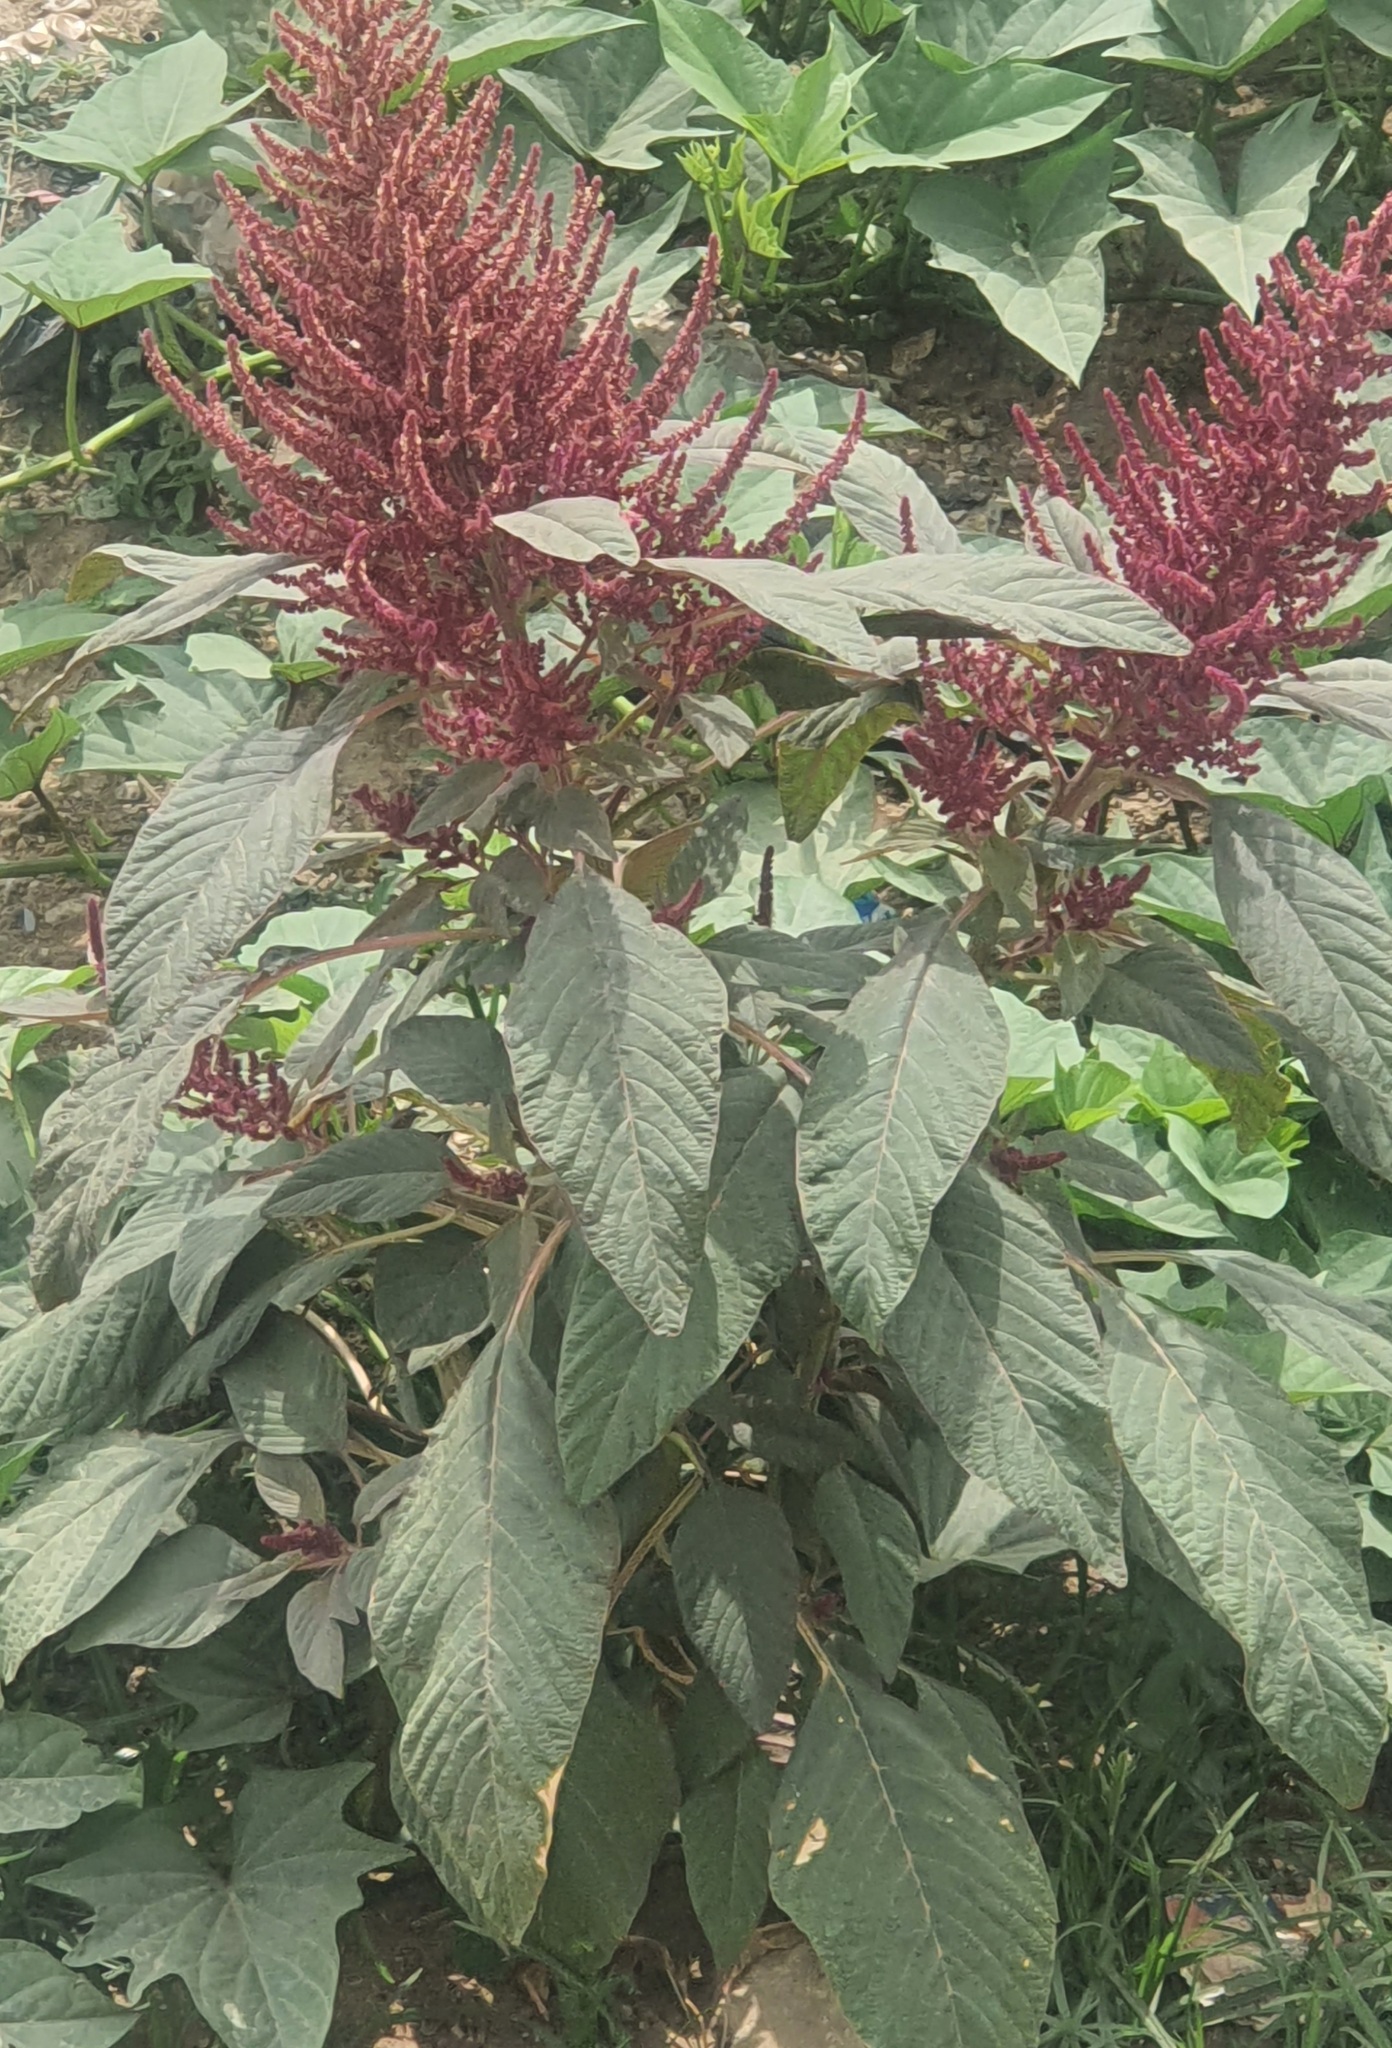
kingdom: Plantae
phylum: Tracheophyta
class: Magnoliopsida
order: Caryophyllales
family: Amaranthaceae
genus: Amaranthus
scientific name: Amaranthus cruentus
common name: Purple amaranth
